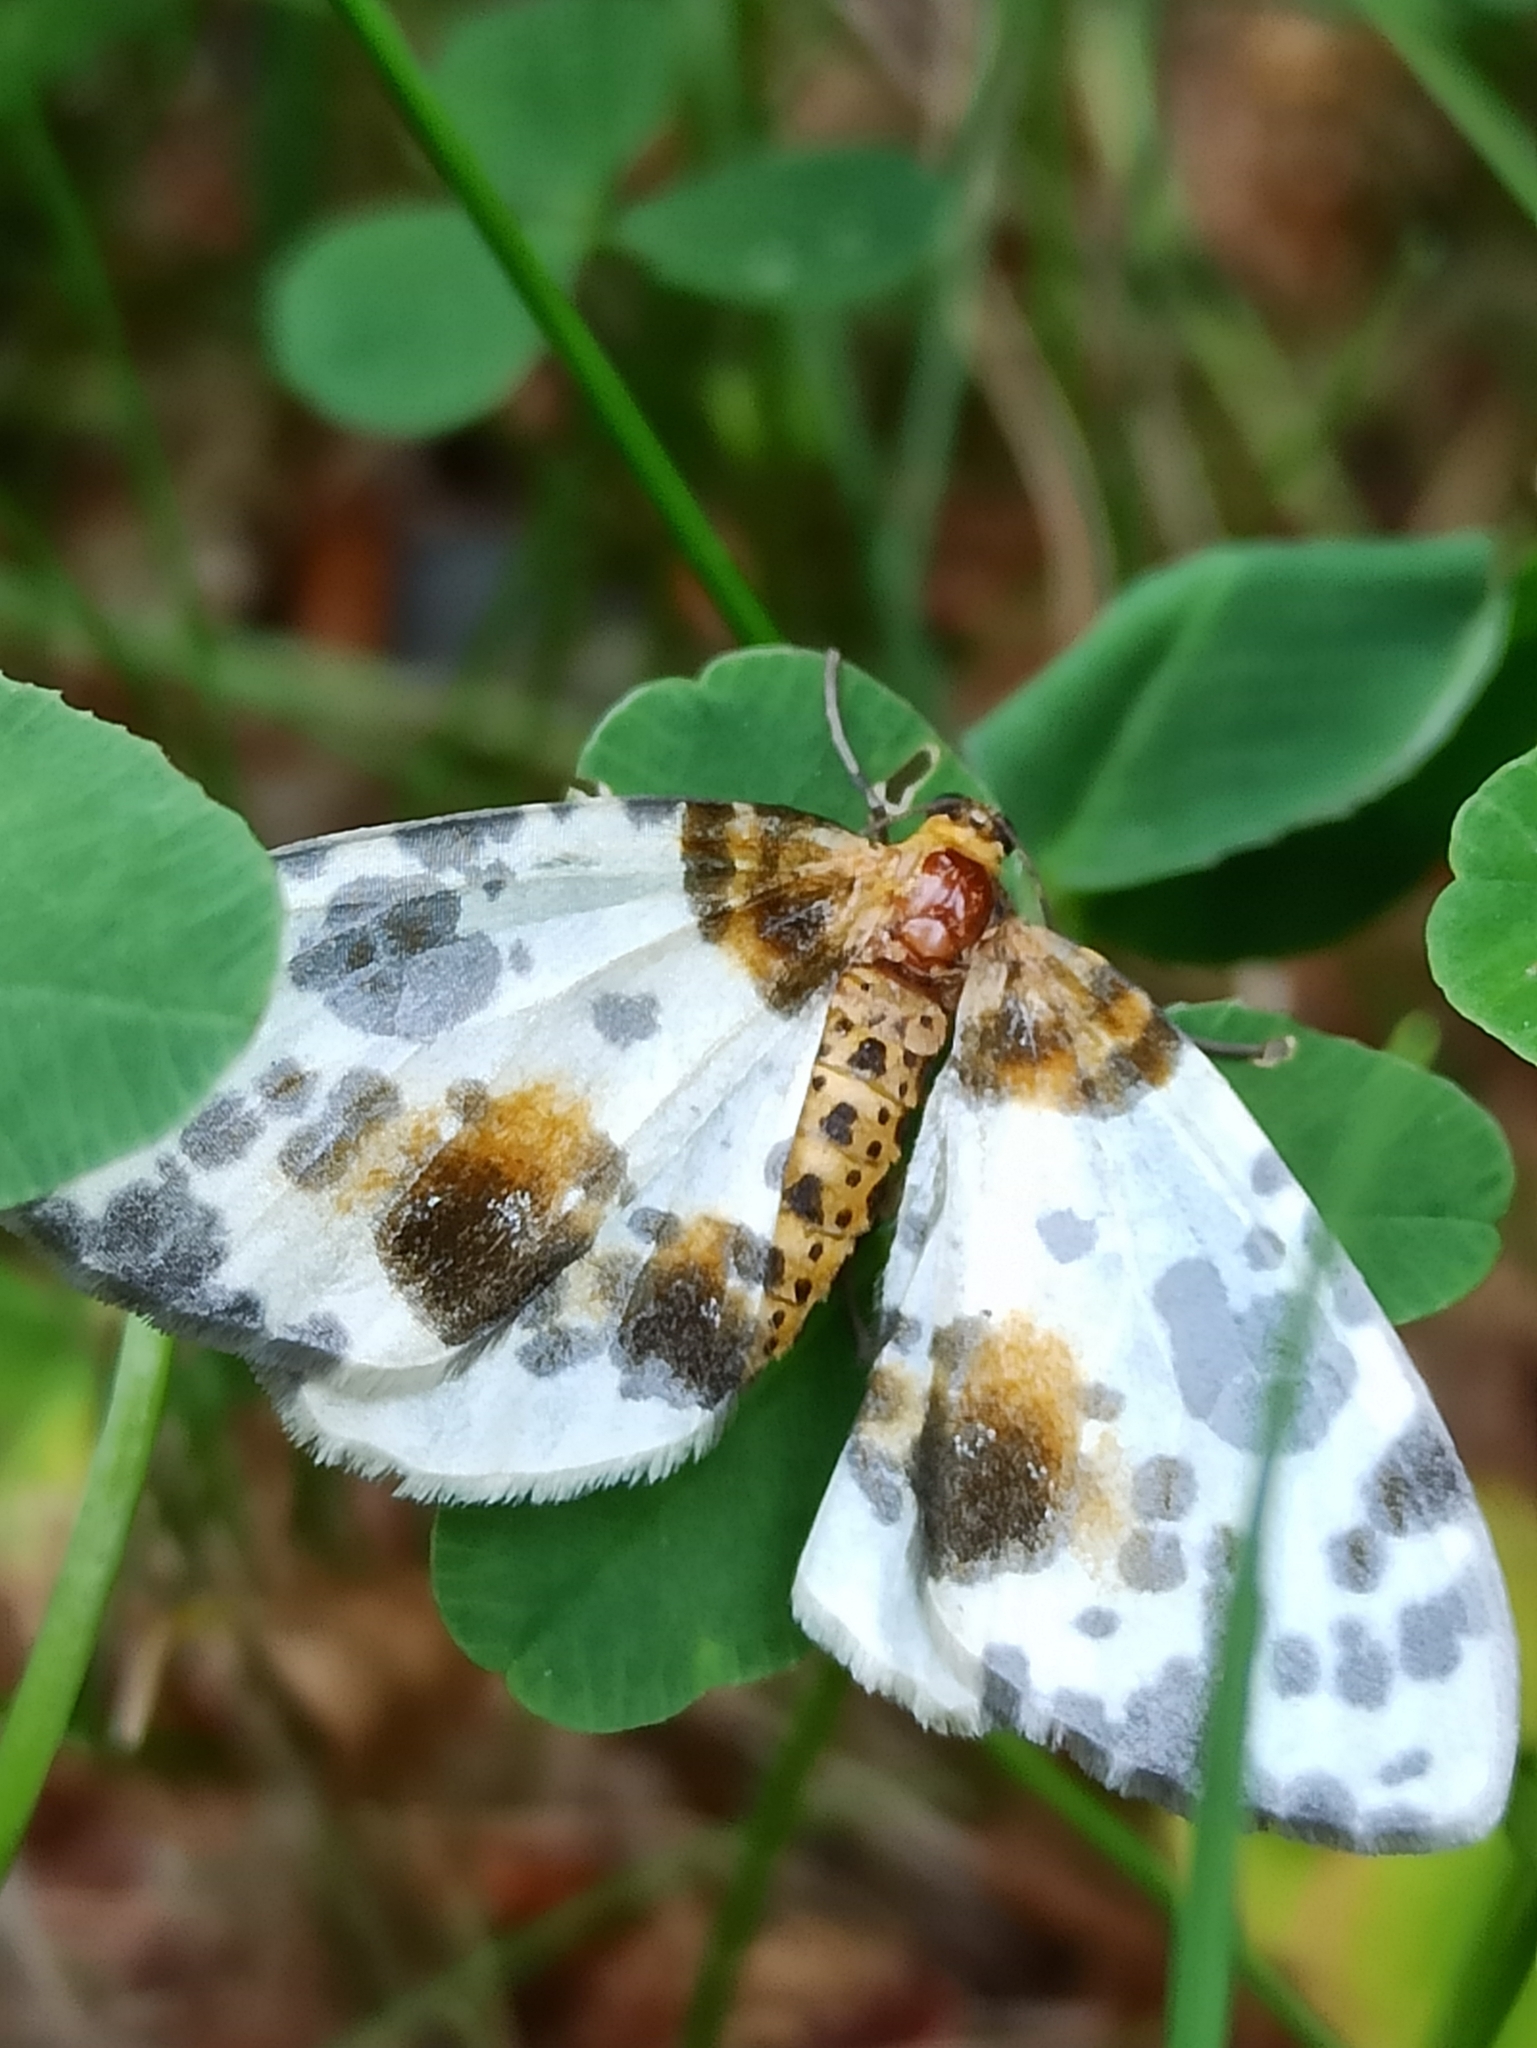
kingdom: Animalia
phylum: Arthropoda
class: Insecta
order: Lepidoptera
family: Geometridae
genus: Abraxas
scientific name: Abraxas sylvata
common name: Clouded magpie
